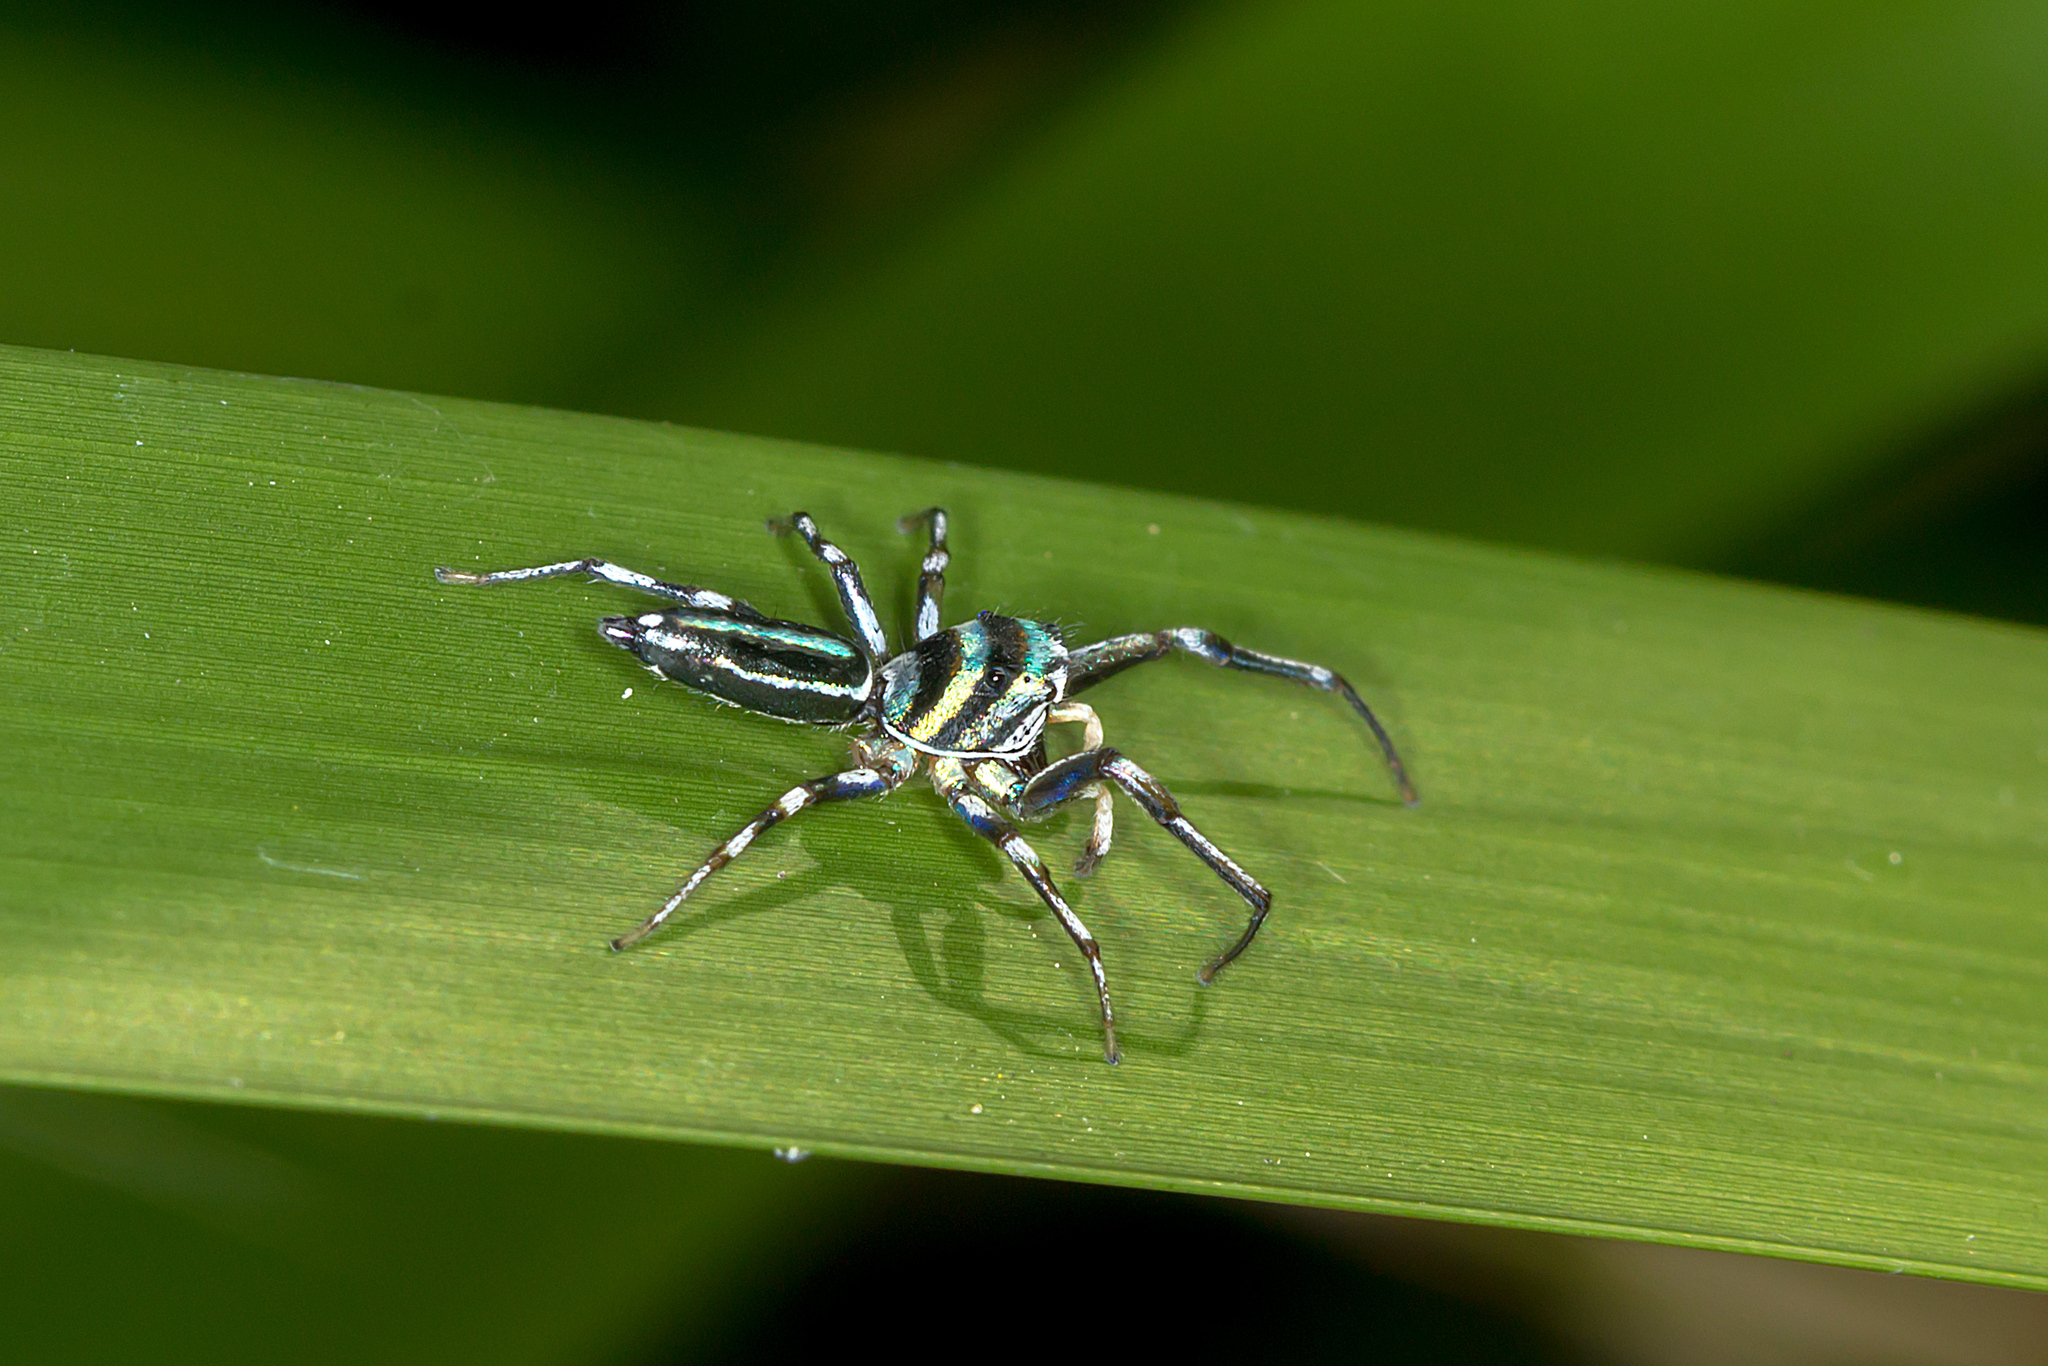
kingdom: Animalia
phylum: Arthropoda
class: Arachnida
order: Araneae
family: Salticidae
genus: Cosmophasis
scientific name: Cosmophasis micarioides
